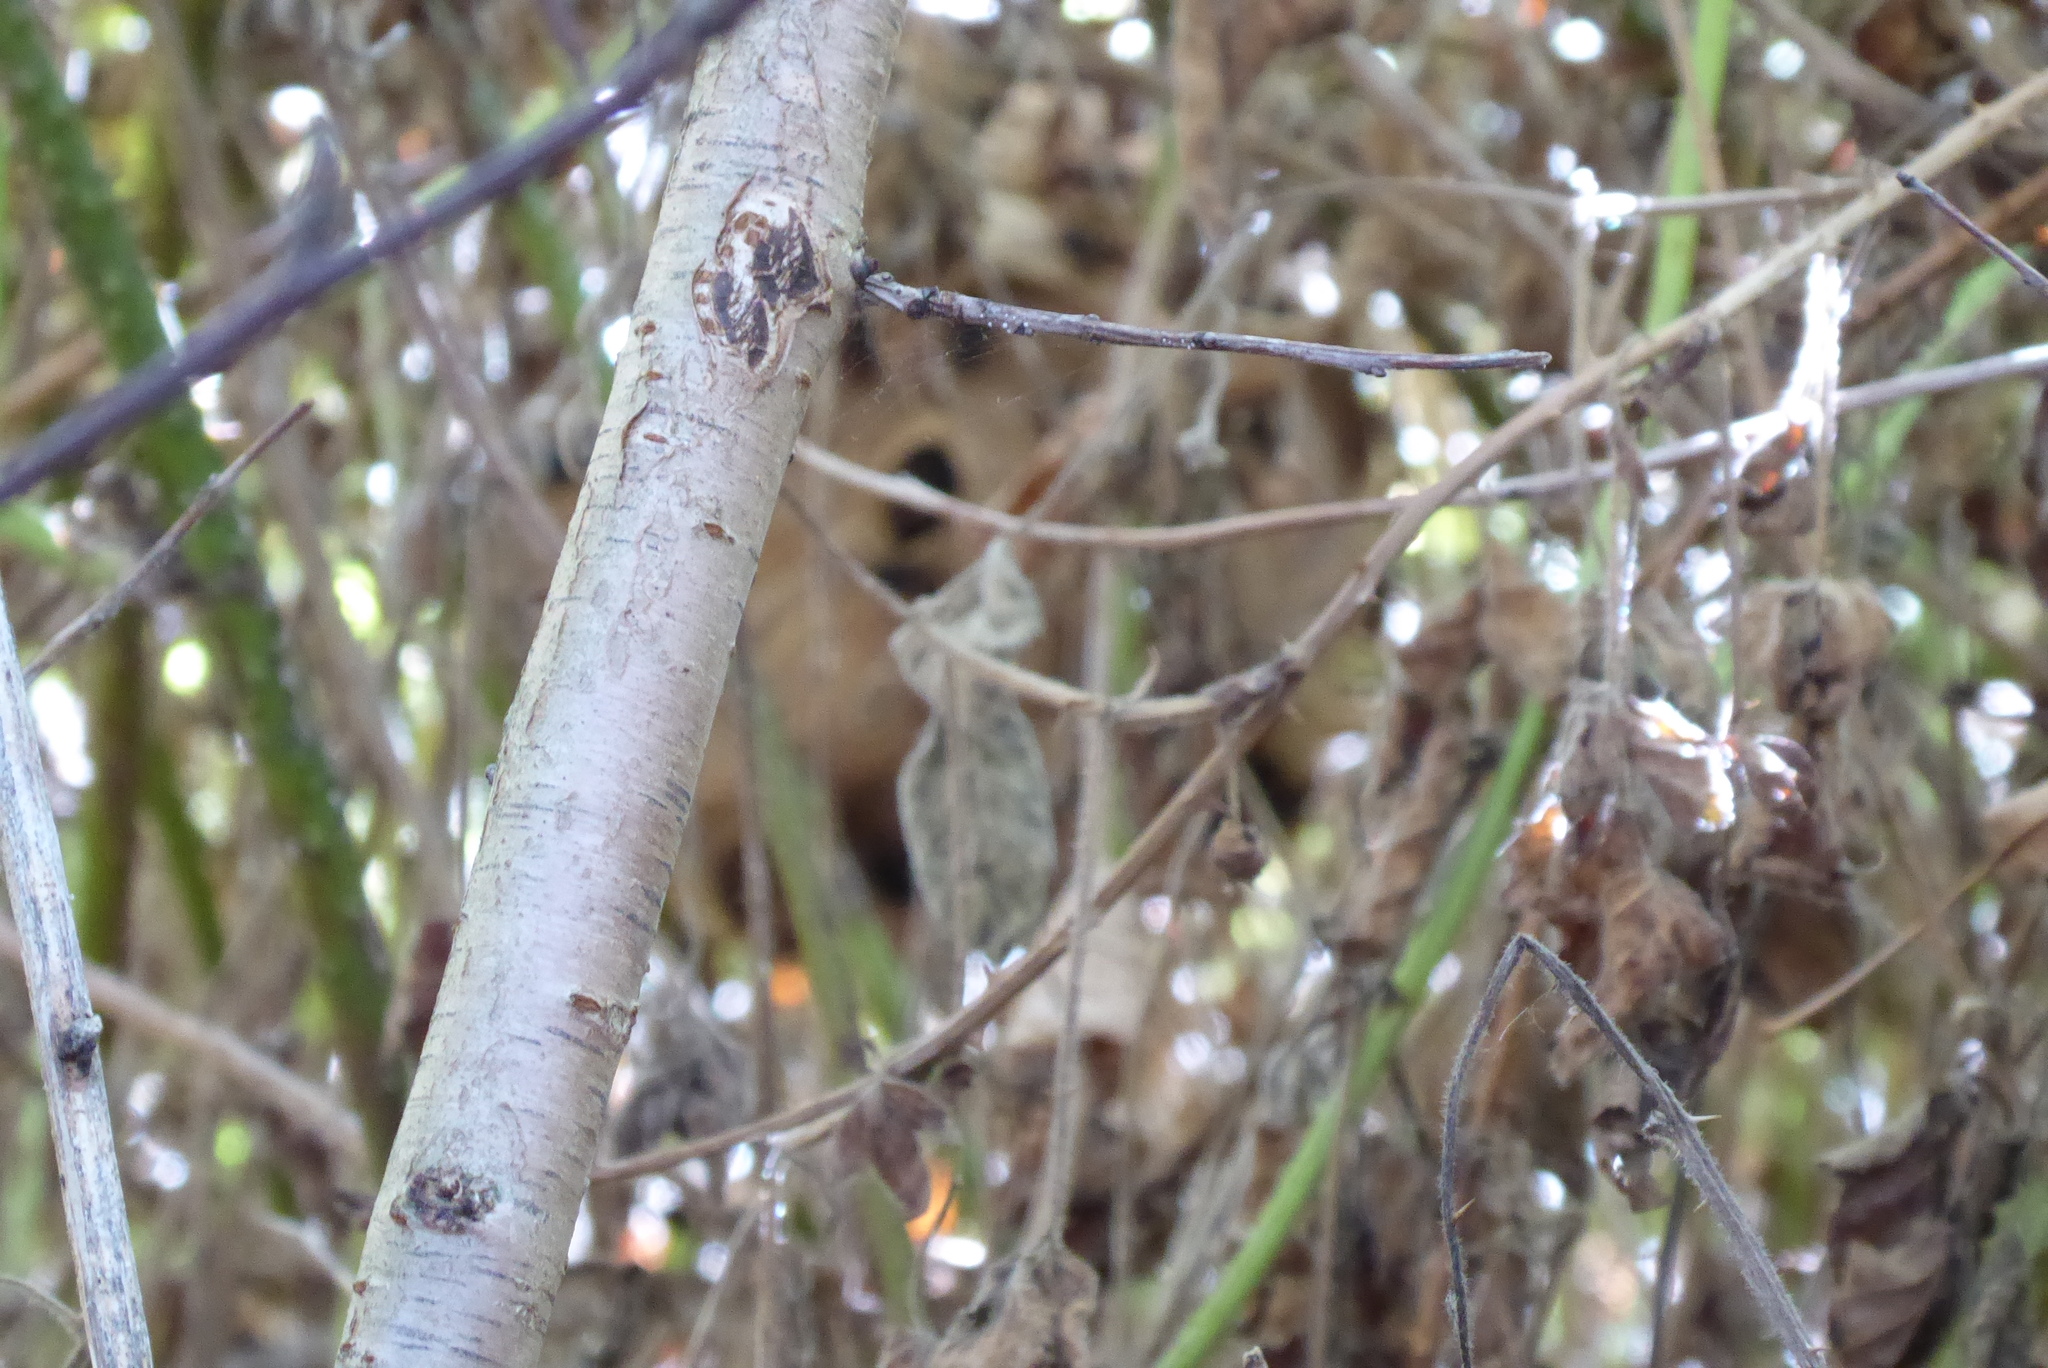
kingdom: Animalia
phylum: Arthropoda
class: Insecta
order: Hymenoptera
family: Vespidae
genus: Vespa
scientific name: Vespa velutina
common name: Asian hornet
